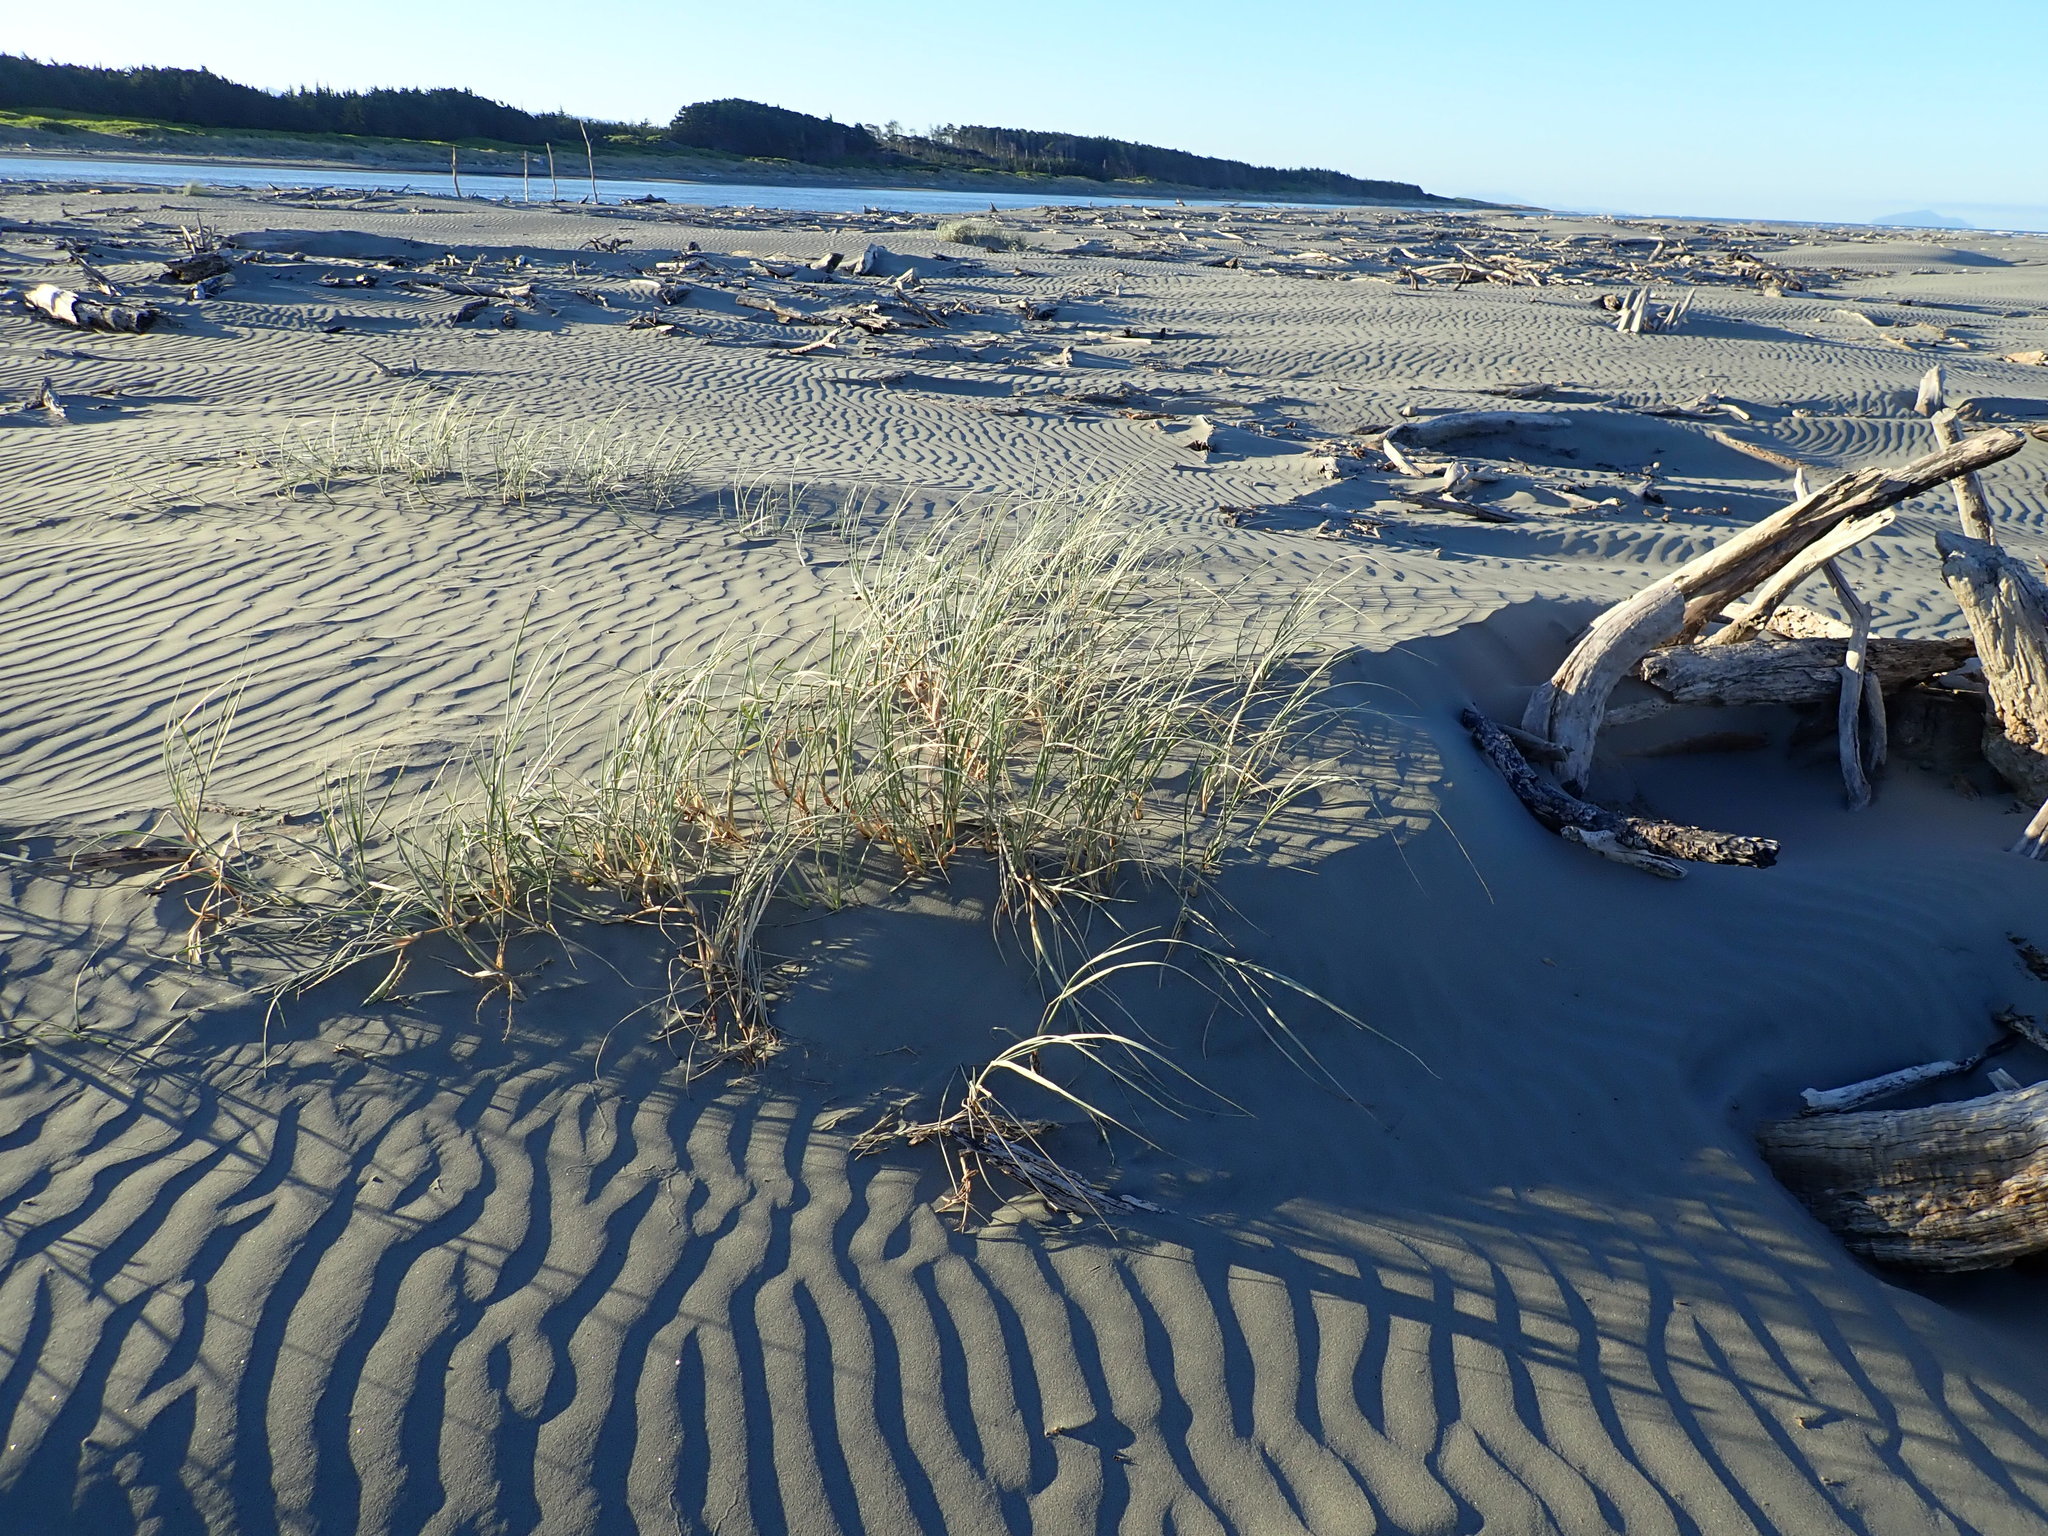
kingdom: Plantae
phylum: Tracheophyta
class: Liliopsida
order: Poales
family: Poaceae
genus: Spinifex
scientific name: Spinifex sericeus
